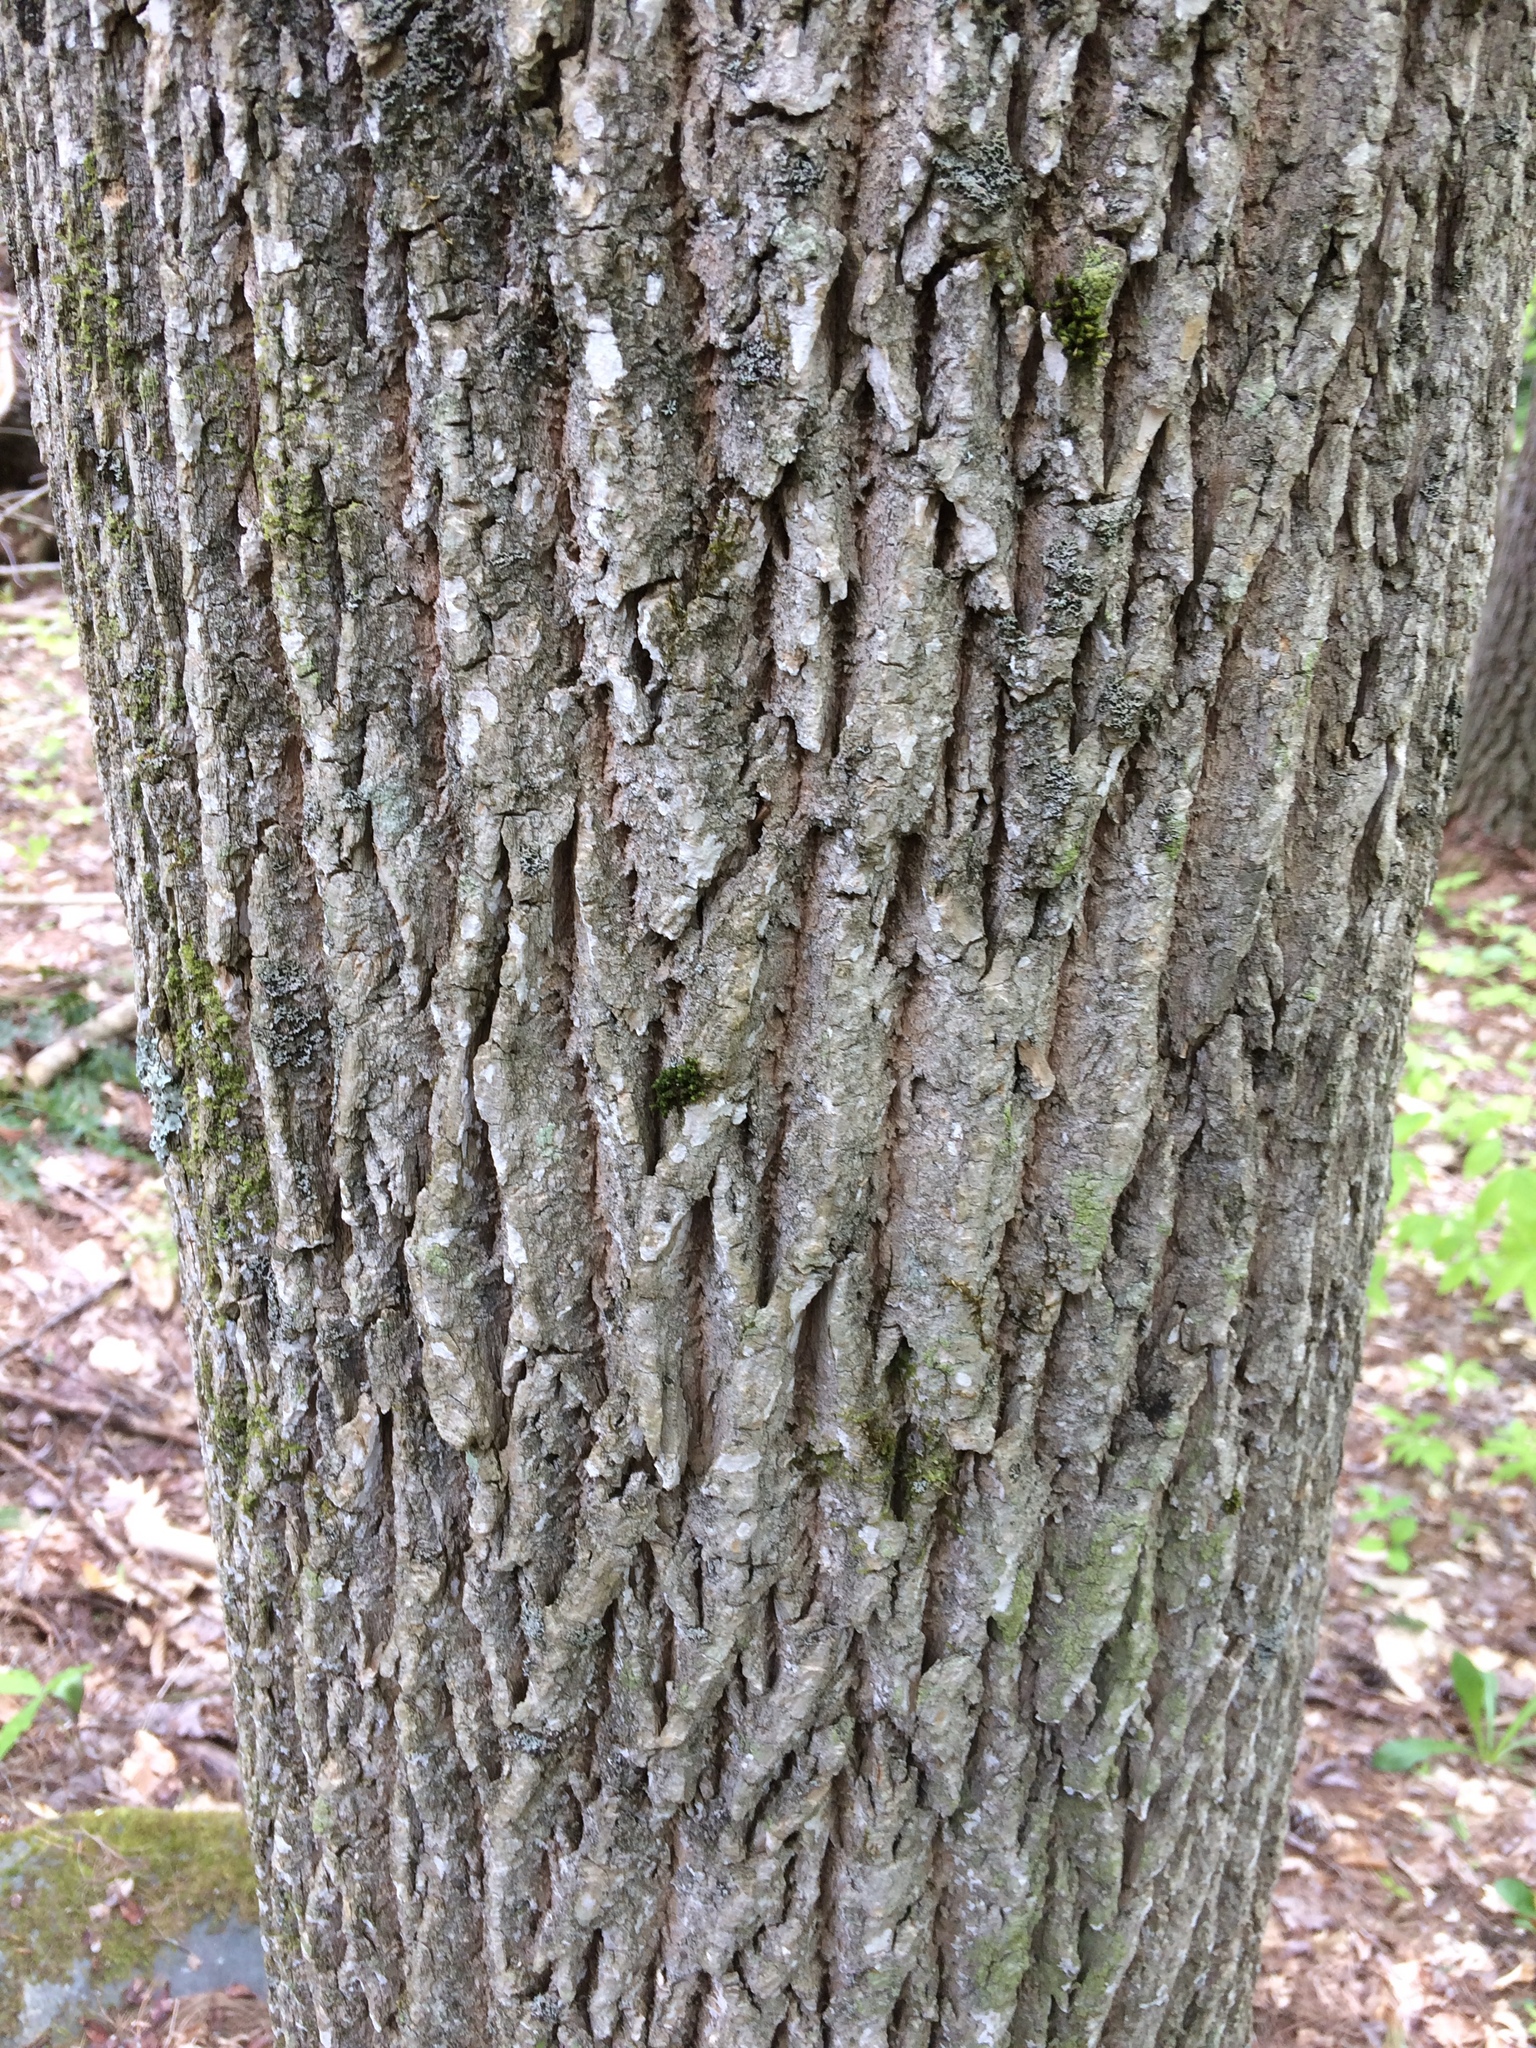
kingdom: Plantae
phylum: Tracheophyta
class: Magnoliopsida
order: Lamiales
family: Oleaceae
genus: Fraxinus
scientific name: Fraxinus americana
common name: White ash
